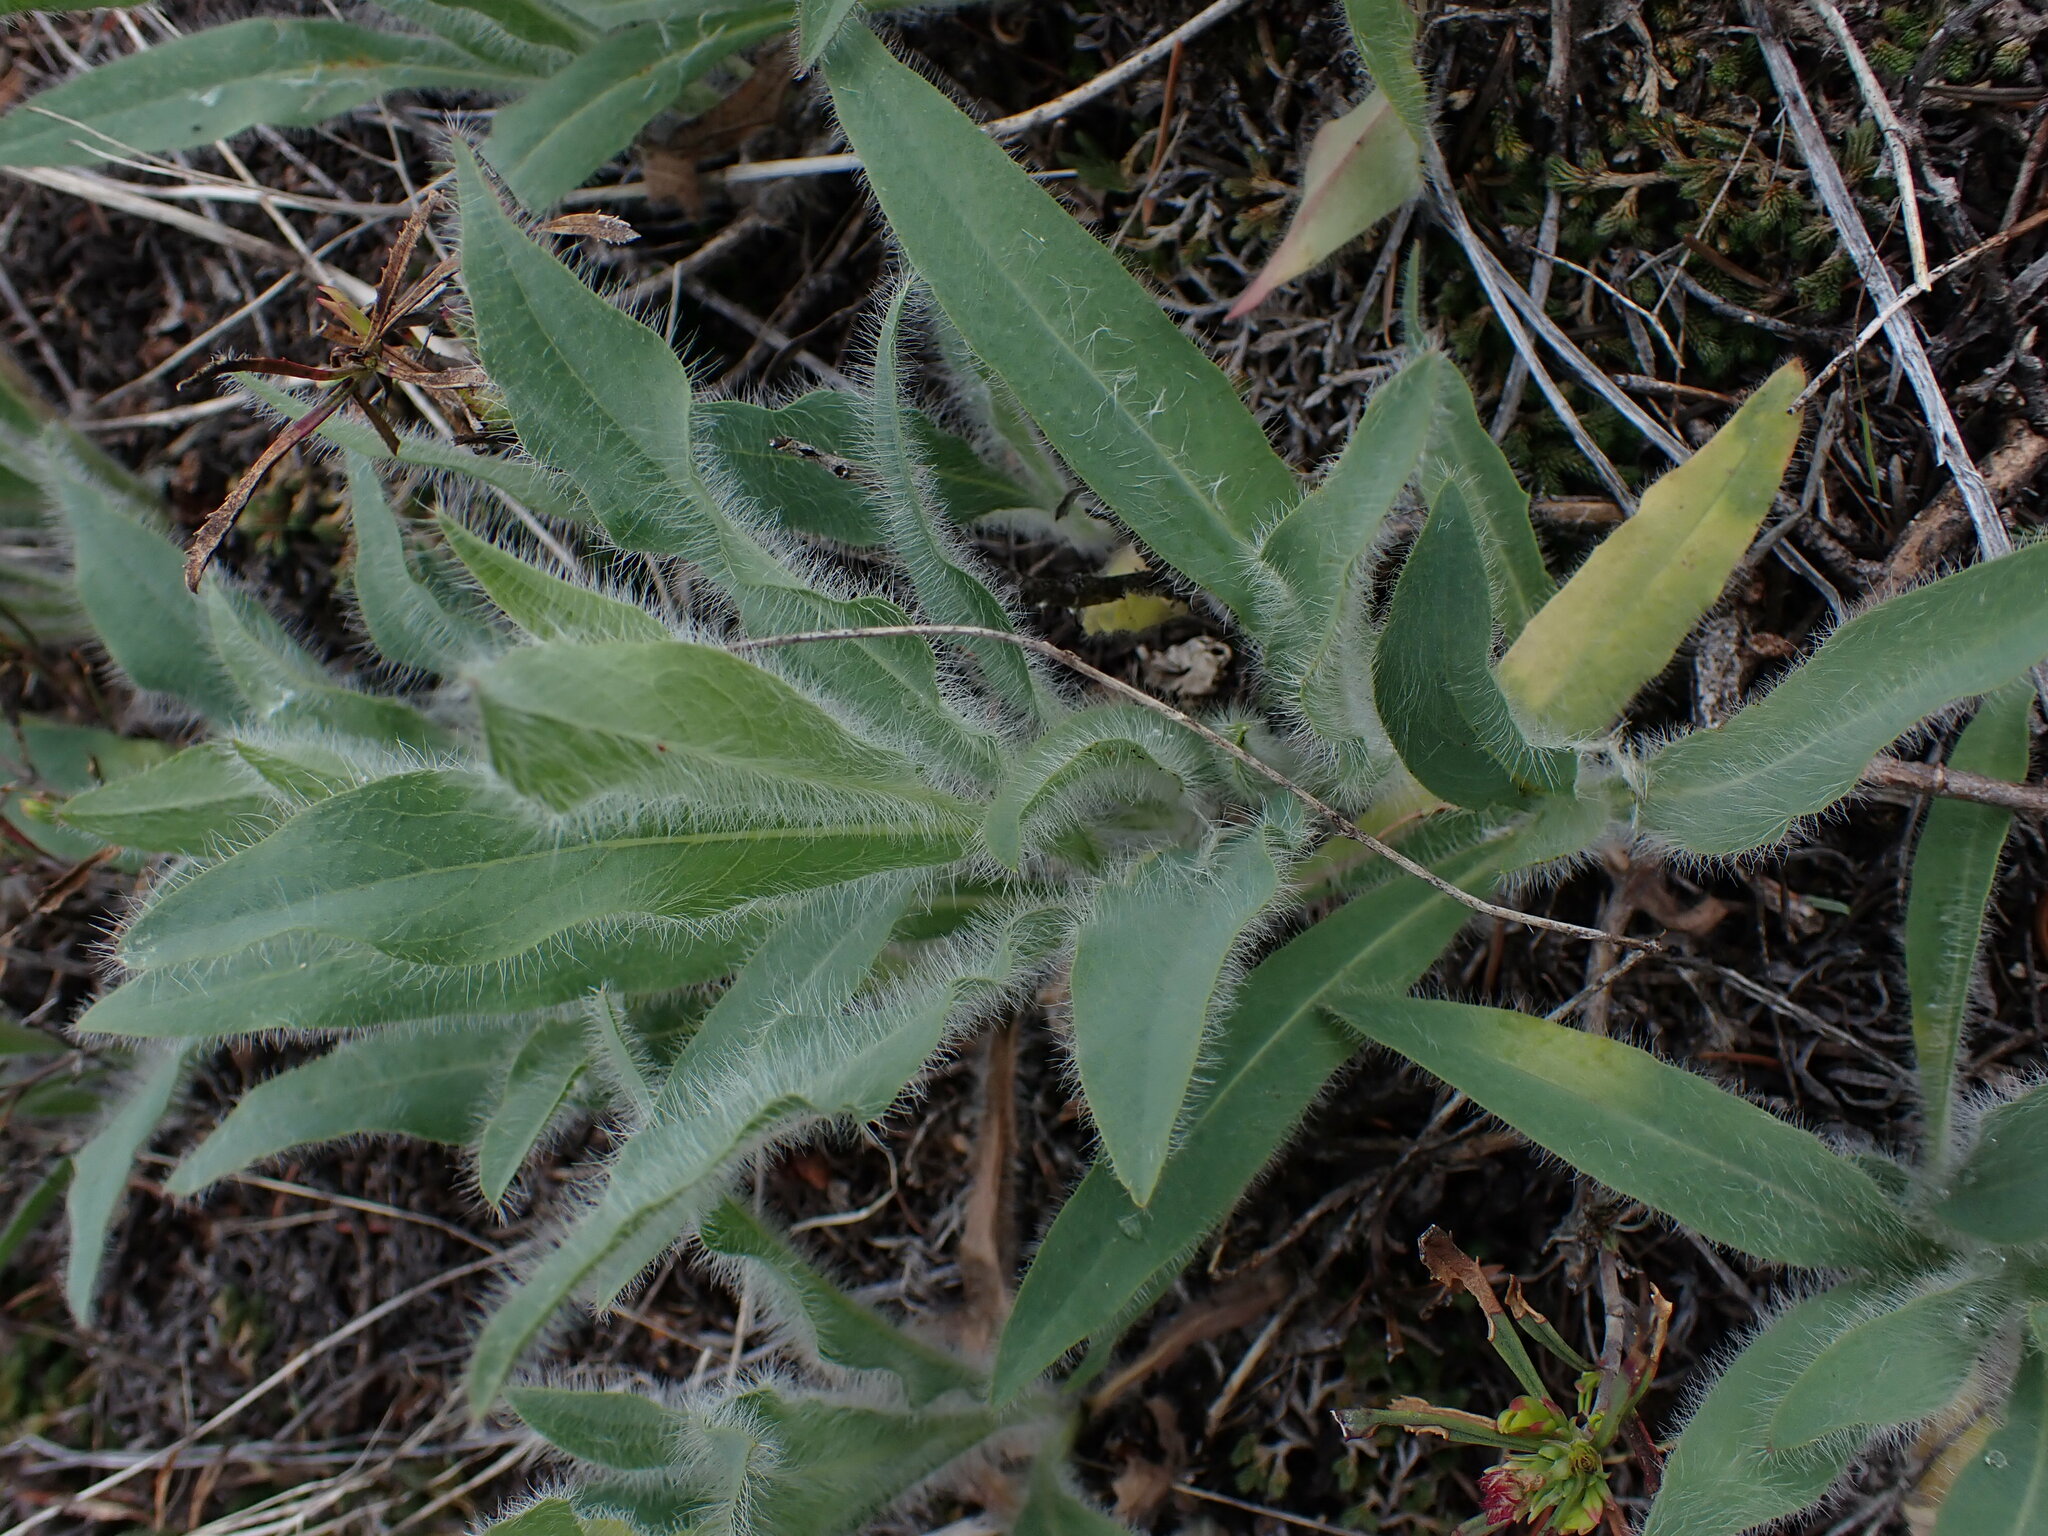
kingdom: Plantae
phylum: Tracheophyta
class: Magnoliopsida
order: Asterales
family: Asteraceae
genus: Hieracium
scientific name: Hieracium scouleri
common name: Hound's-tongue hawkweed
